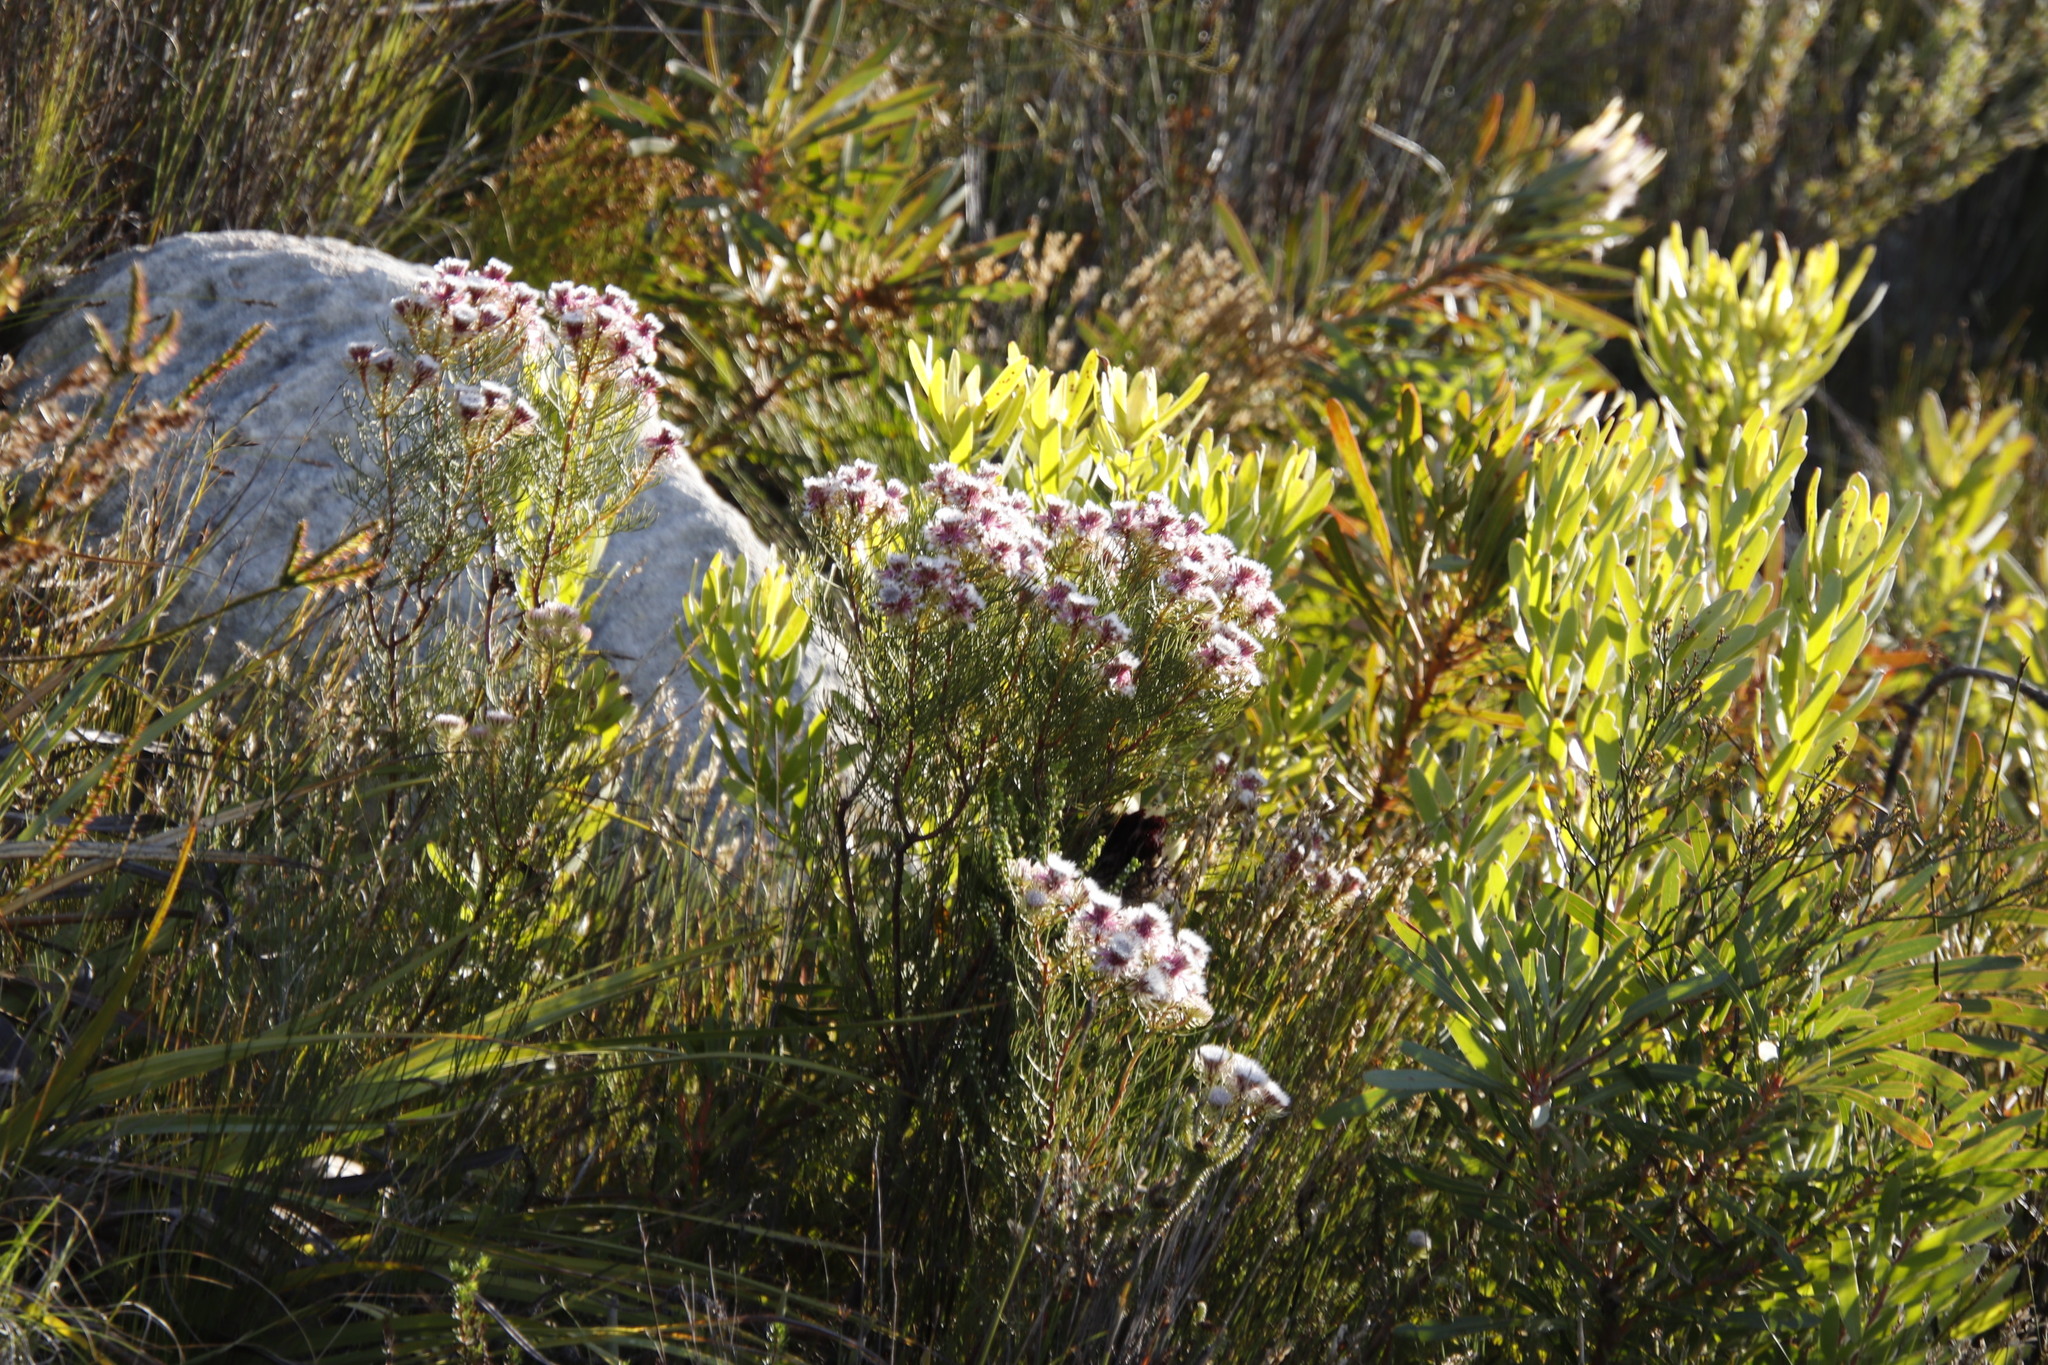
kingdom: Plantae
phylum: Tracheophyta
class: Magnoliopsida
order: Proteales
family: Proteaceae
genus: Serruria
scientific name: Serruria phylicoides
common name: Bearded spiderhead
